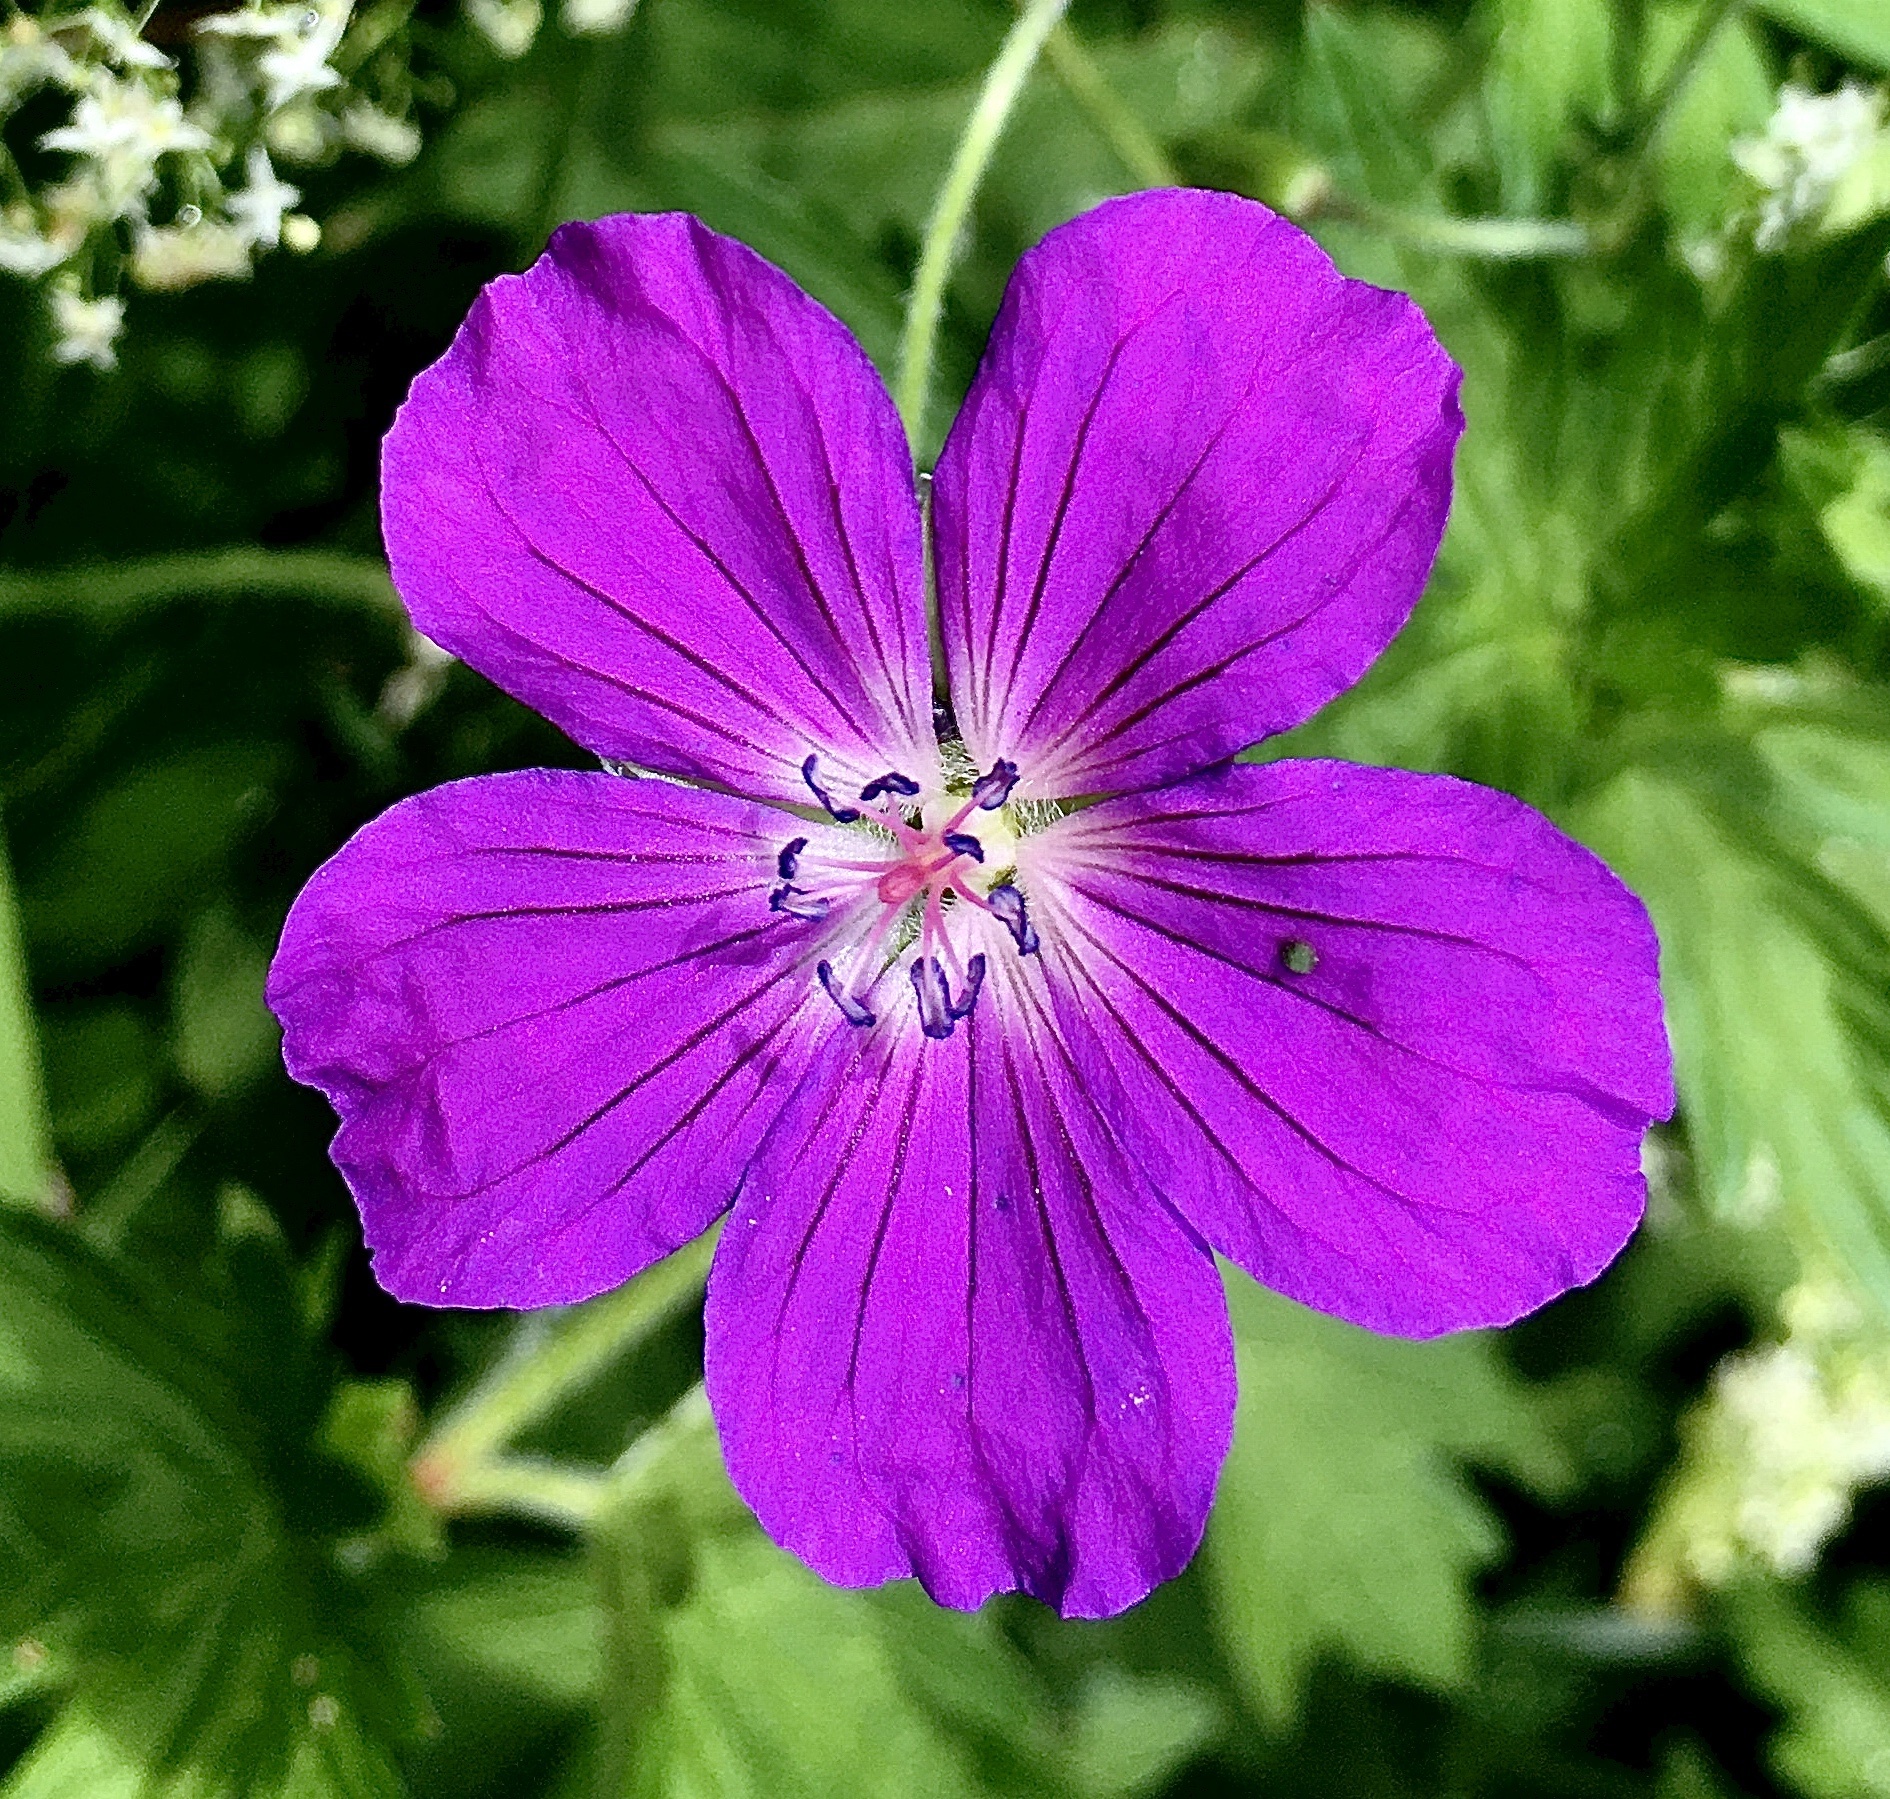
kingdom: Plantae
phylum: Tracheophyta
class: Magnoliopsida
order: Geraniales
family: Geraniaceae
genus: Geranium
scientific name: Geranium palustre
